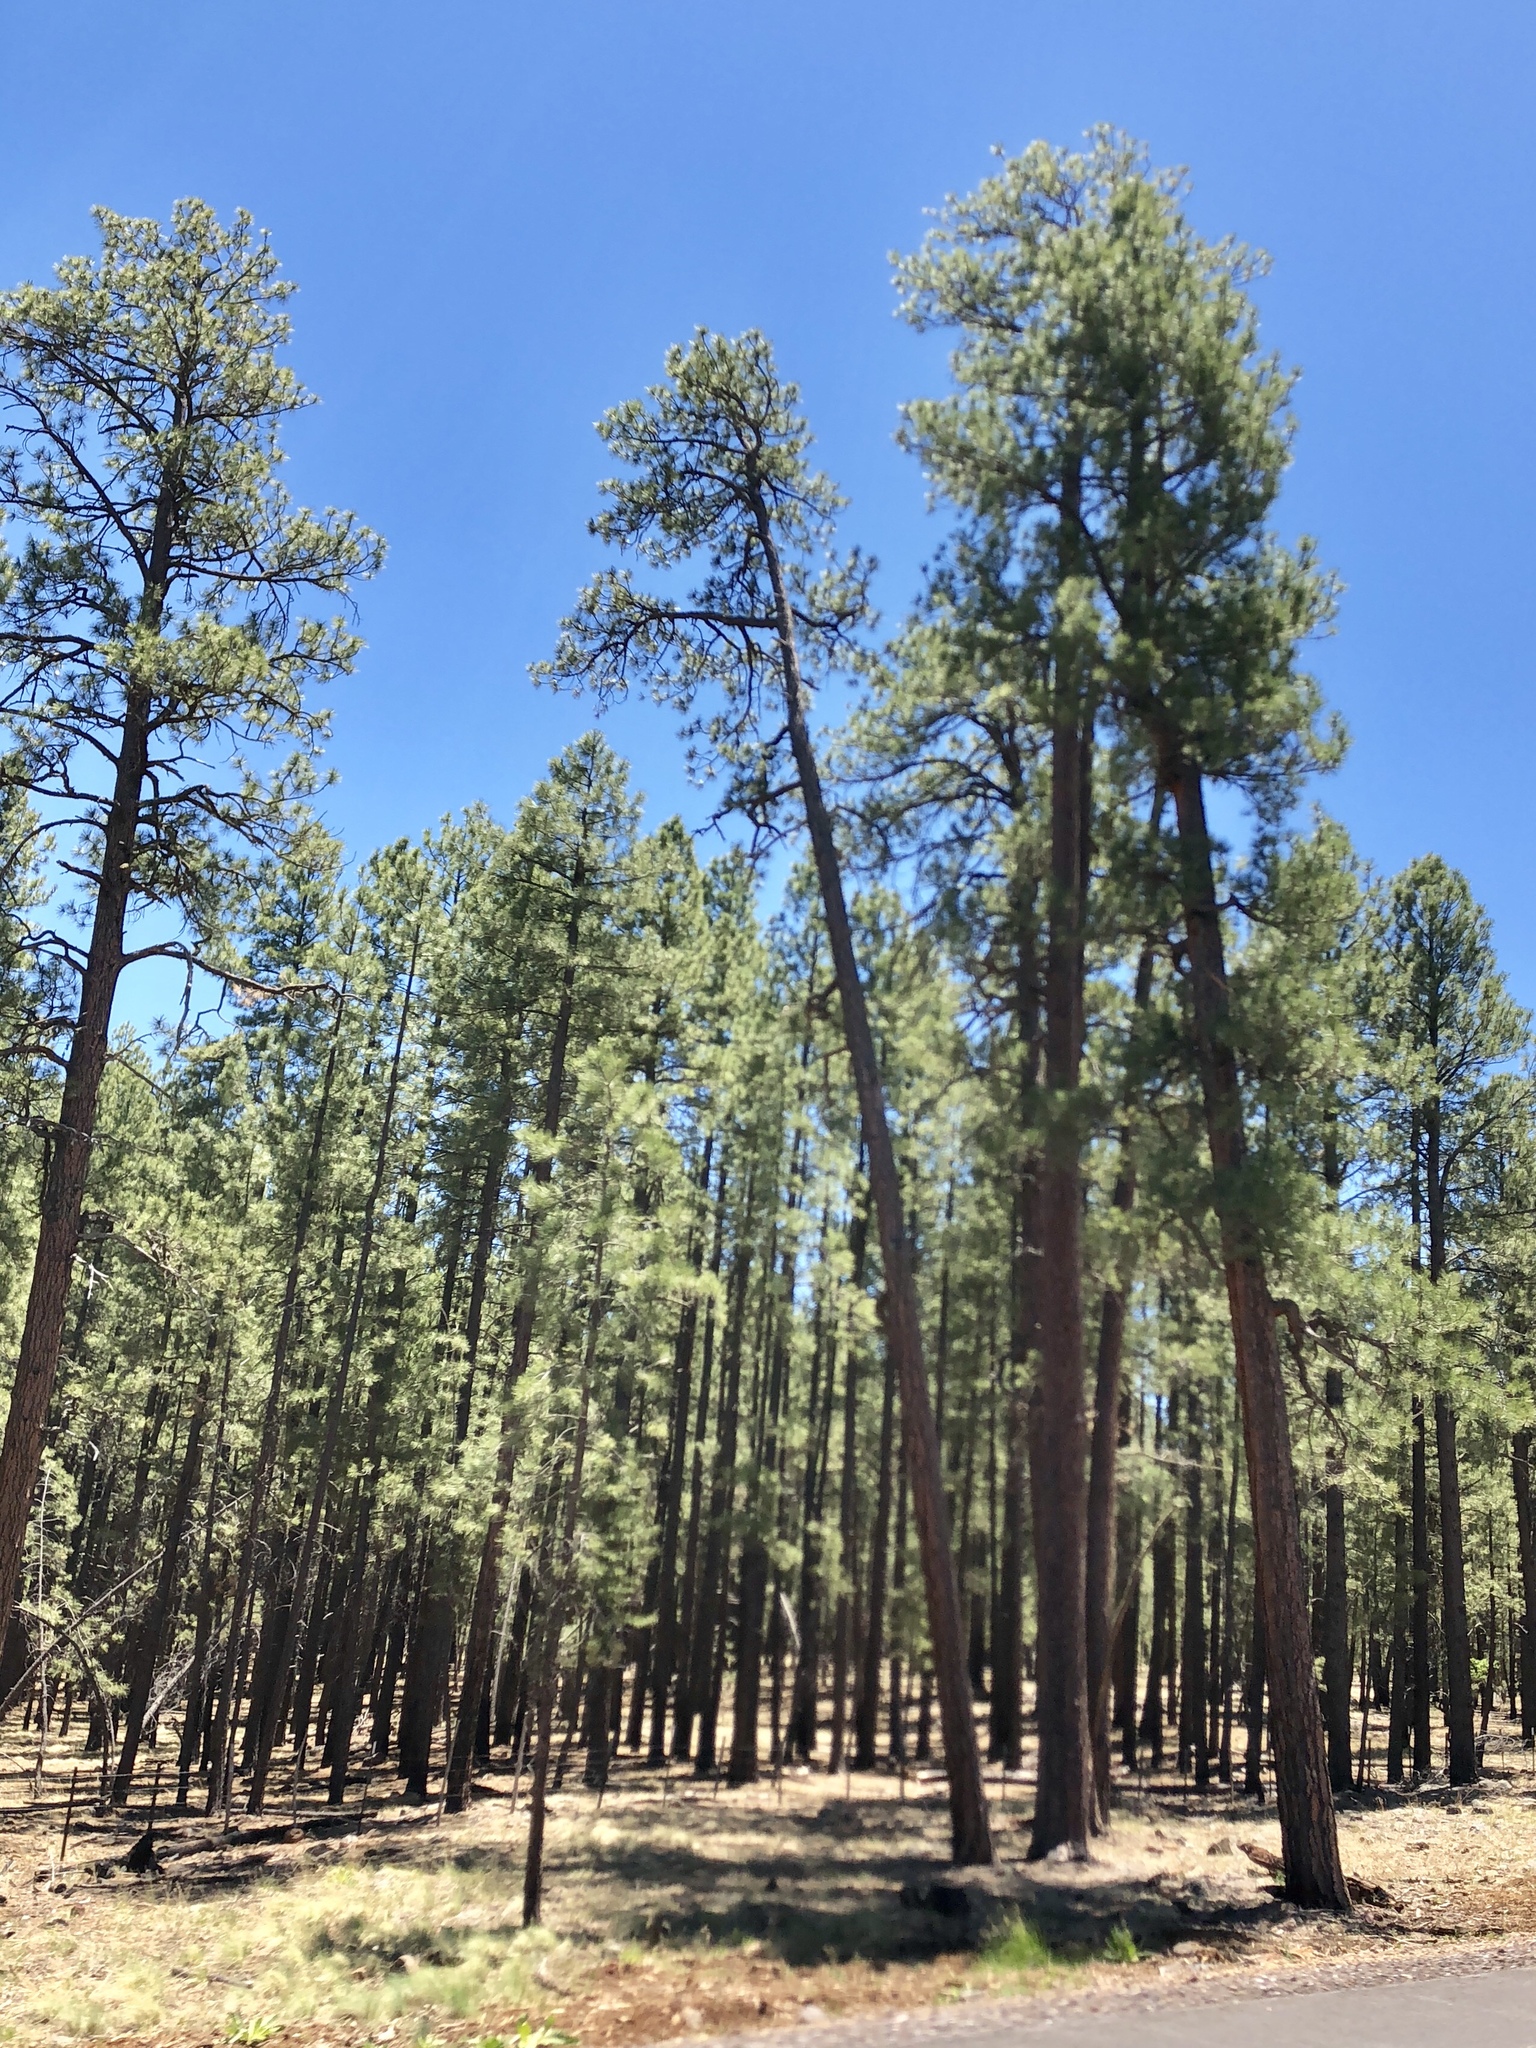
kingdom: Plantae
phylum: Tracheophyta
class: Pinopsida
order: Pinales
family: Pinaceae
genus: Pinus
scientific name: Pinus ponderosa
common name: Western yellow-pine
